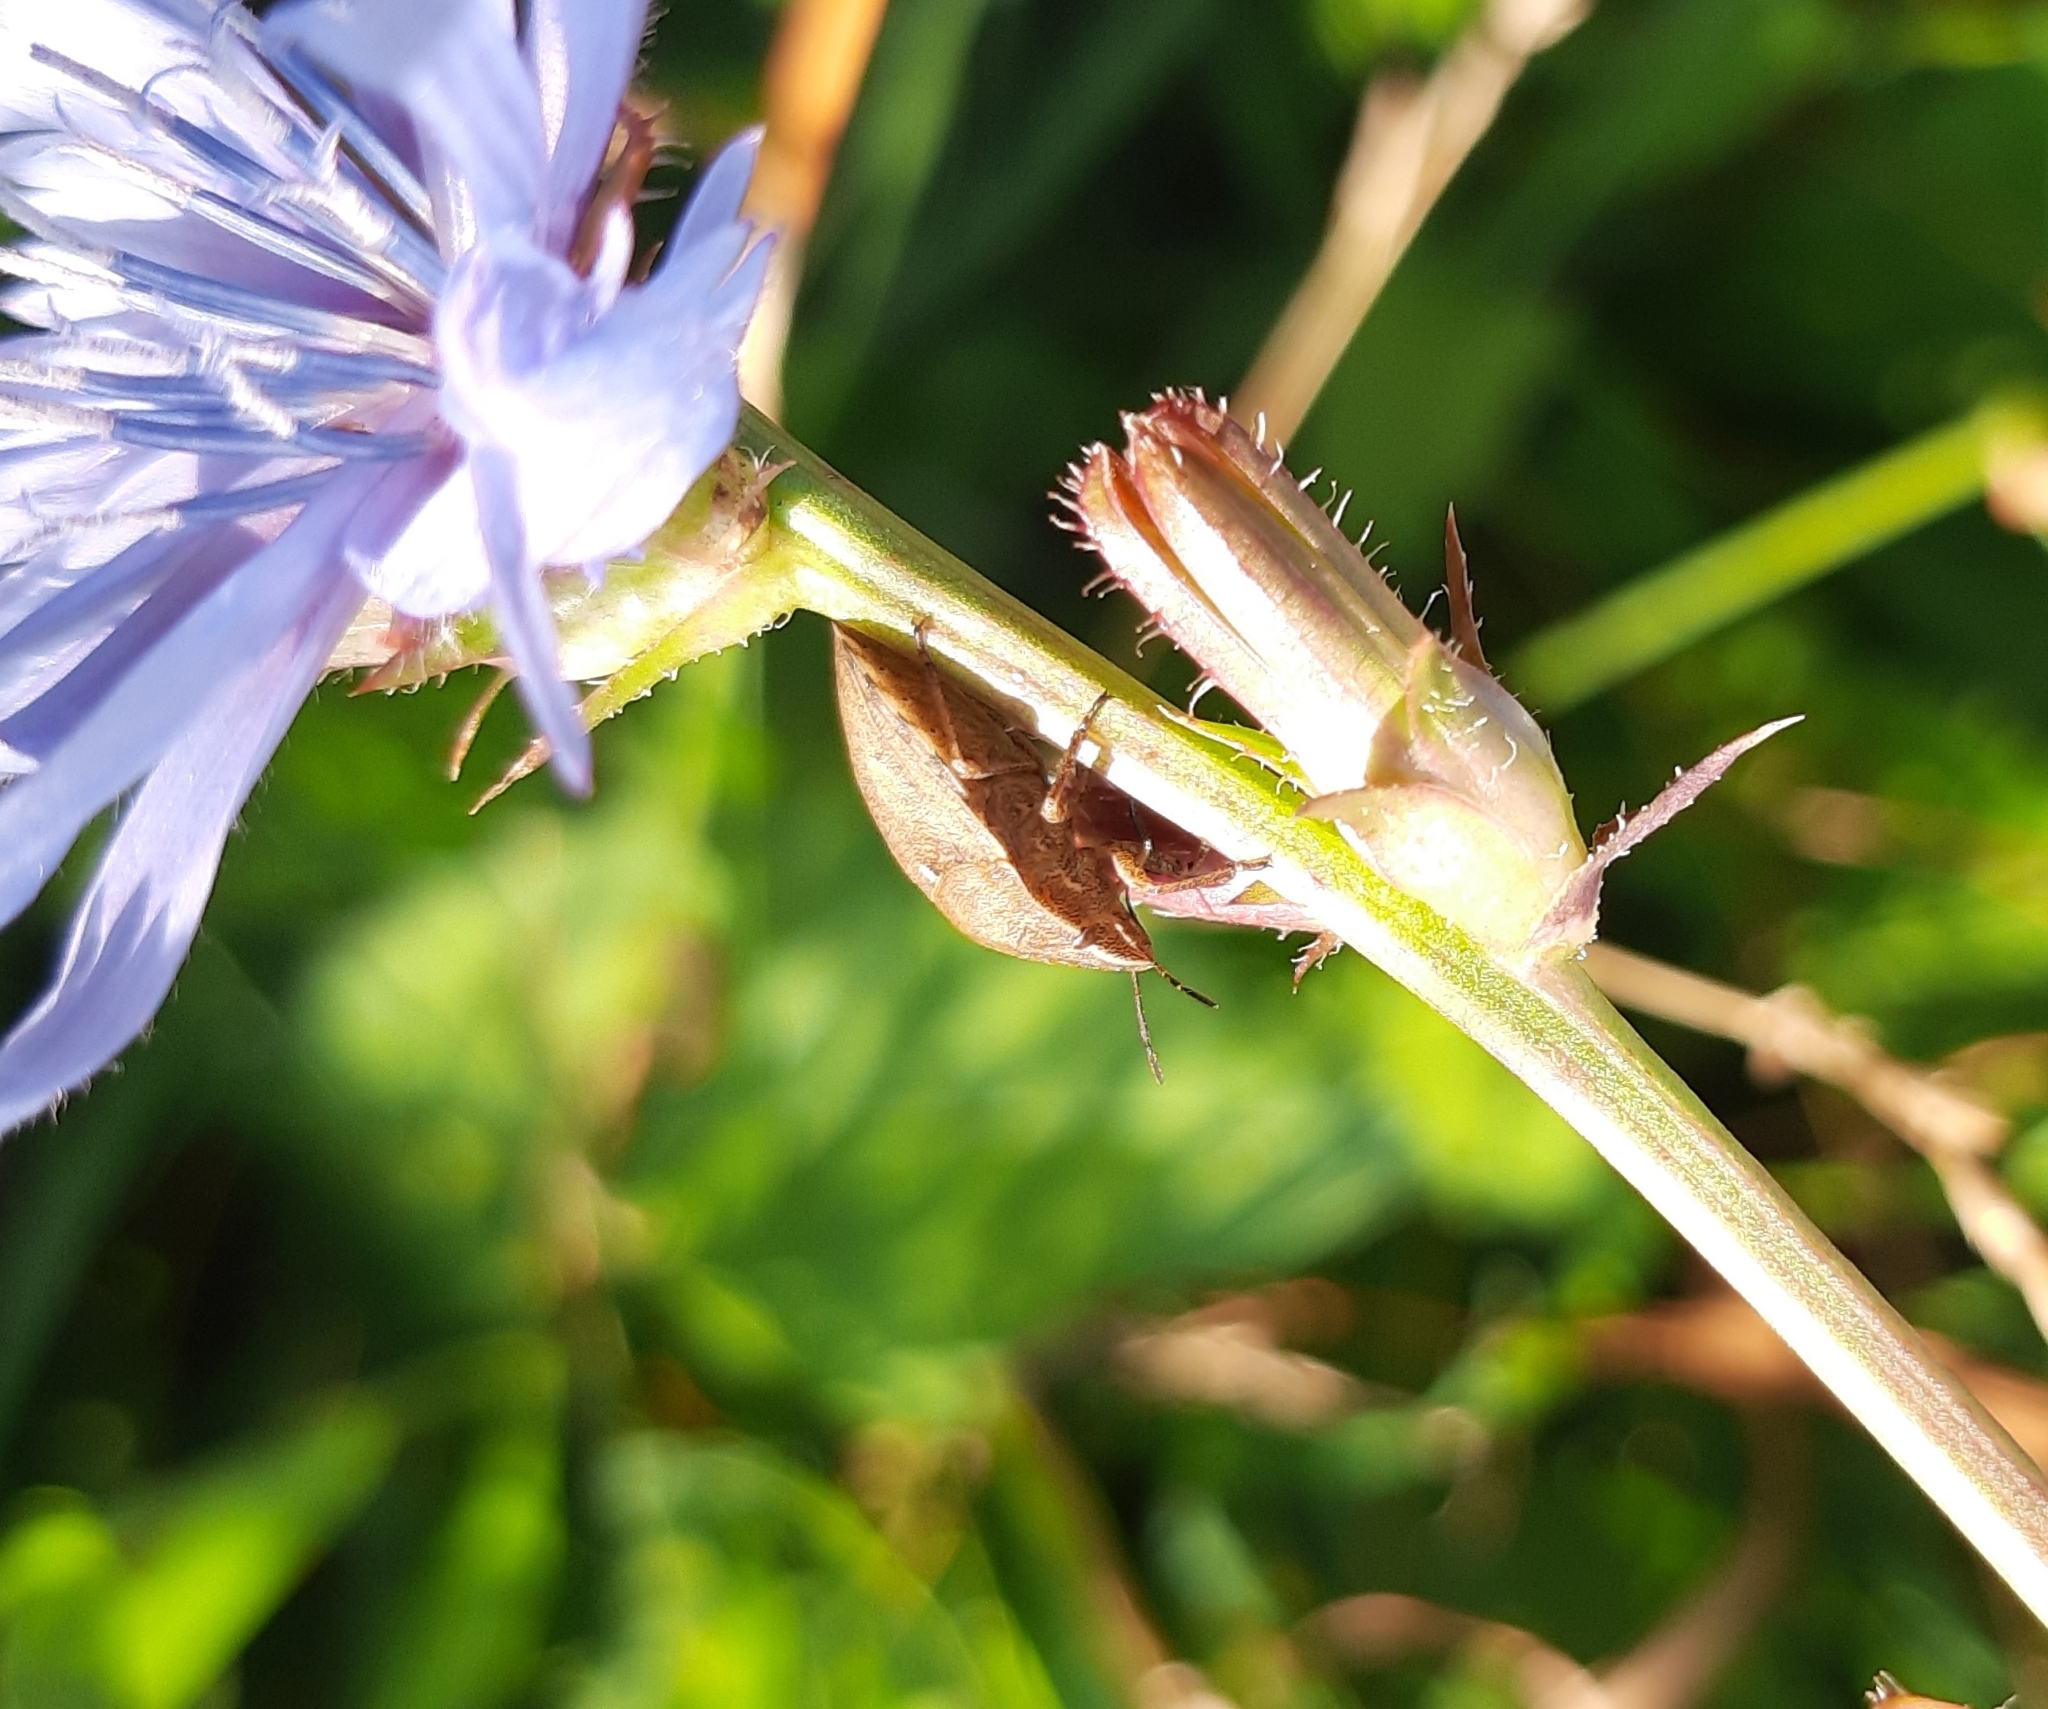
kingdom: Animalia
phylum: Arthropoda
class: Insecta
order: Hemiptera
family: Scutelleridae
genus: Eurygaster
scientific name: Eurygaster testudinaria
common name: Tortoise bug
